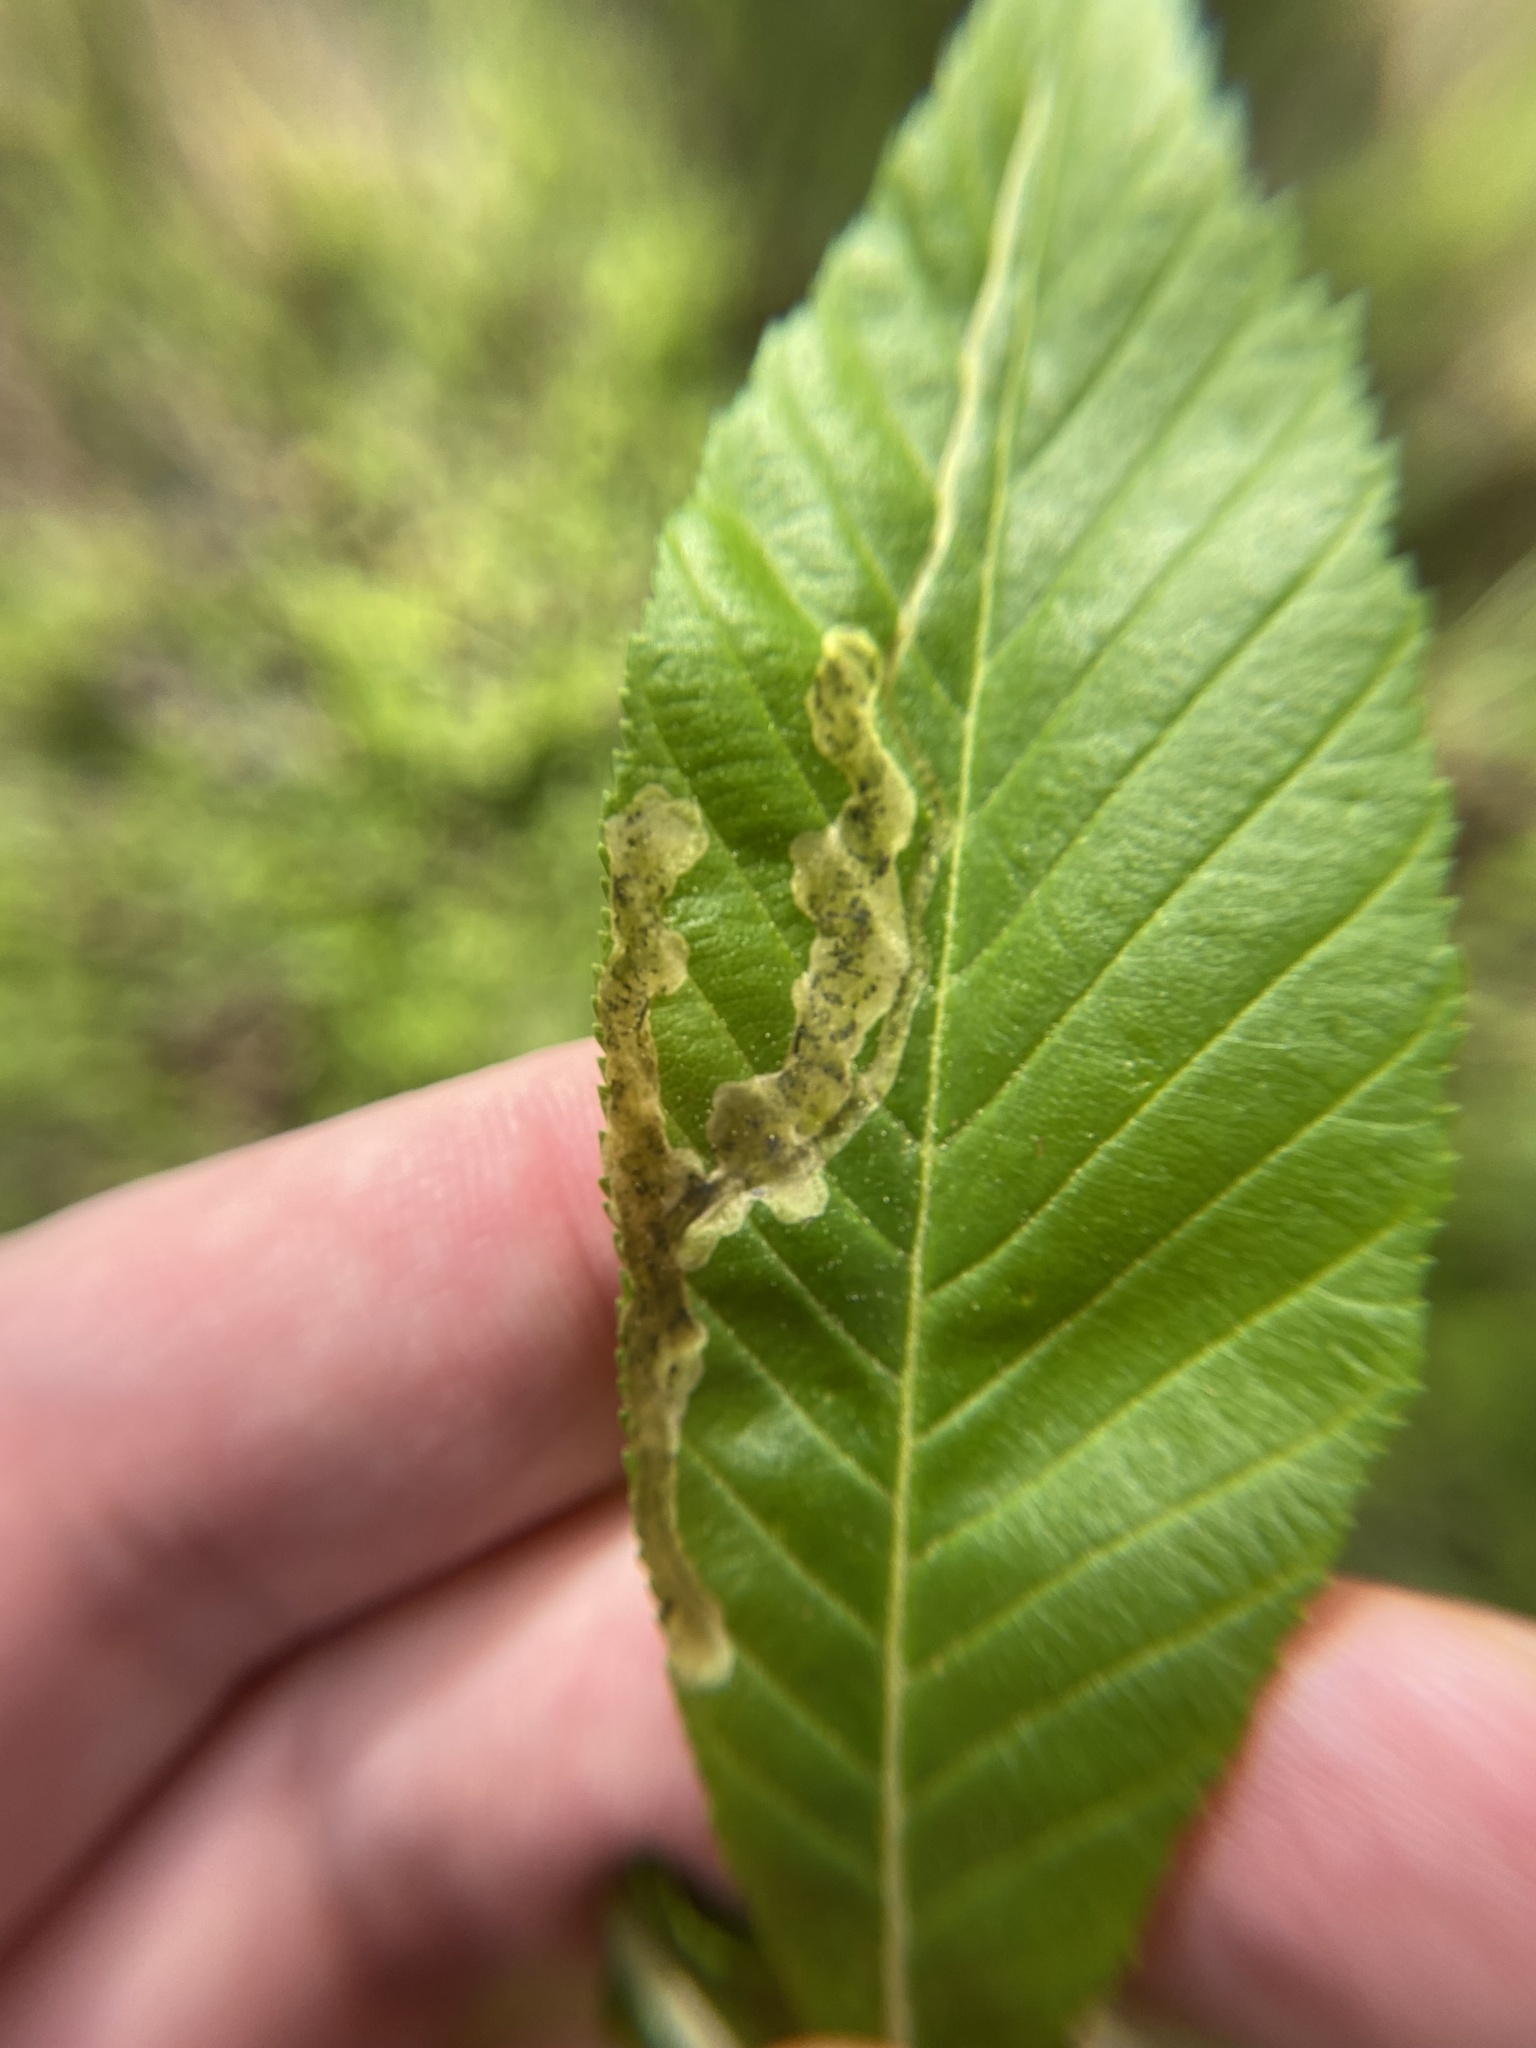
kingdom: Animalia
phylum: Arthropoda
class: Insecta
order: Diptera
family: Agromyzidae
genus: Phytomyza
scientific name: Phytomyza aesculi
